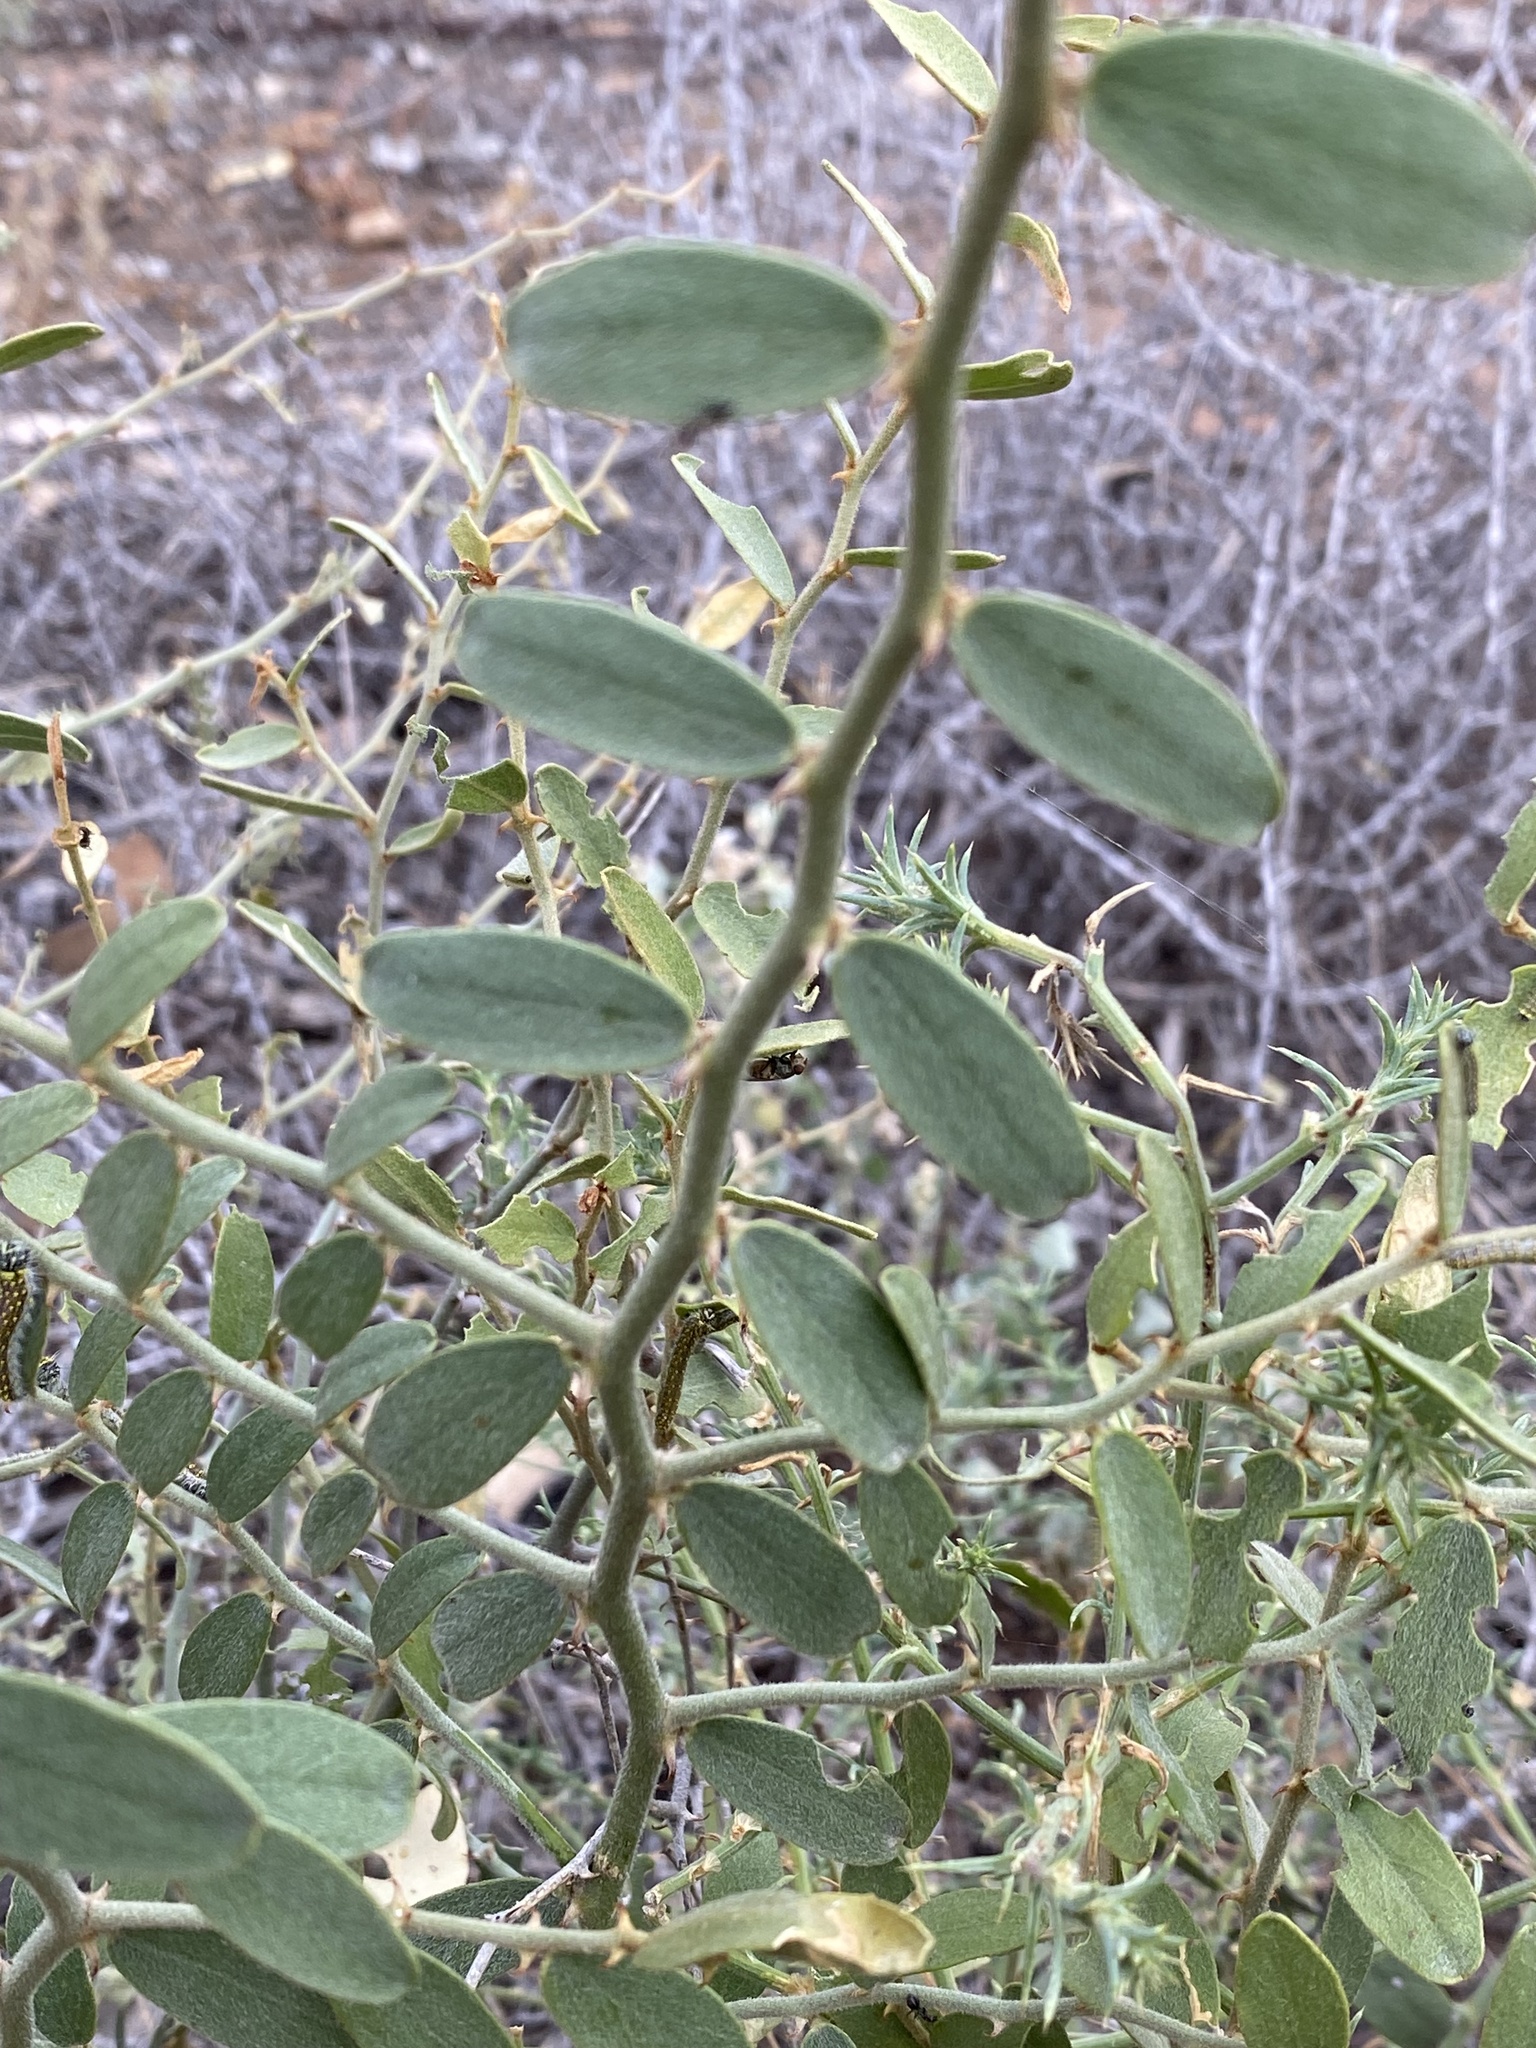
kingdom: Plantae
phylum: Tracheophyta
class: Magnoliopsida
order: Brassicales
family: Capparaceae
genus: Capparis
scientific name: Capparis lasiantha
